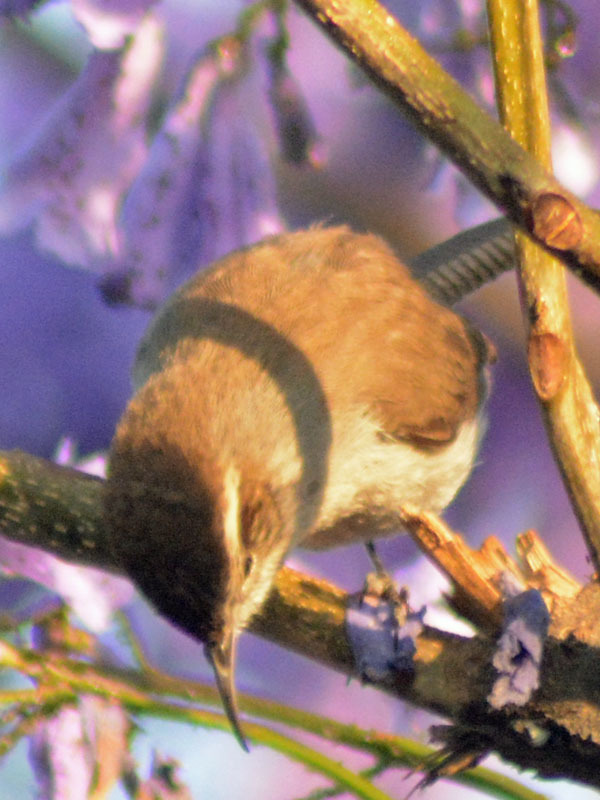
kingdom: Animalia
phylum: Chordata
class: Aves
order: Passeriformes
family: Troglodytidae
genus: Thryomanes
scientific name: Thryomanes bewickii
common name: Bewick's wren
